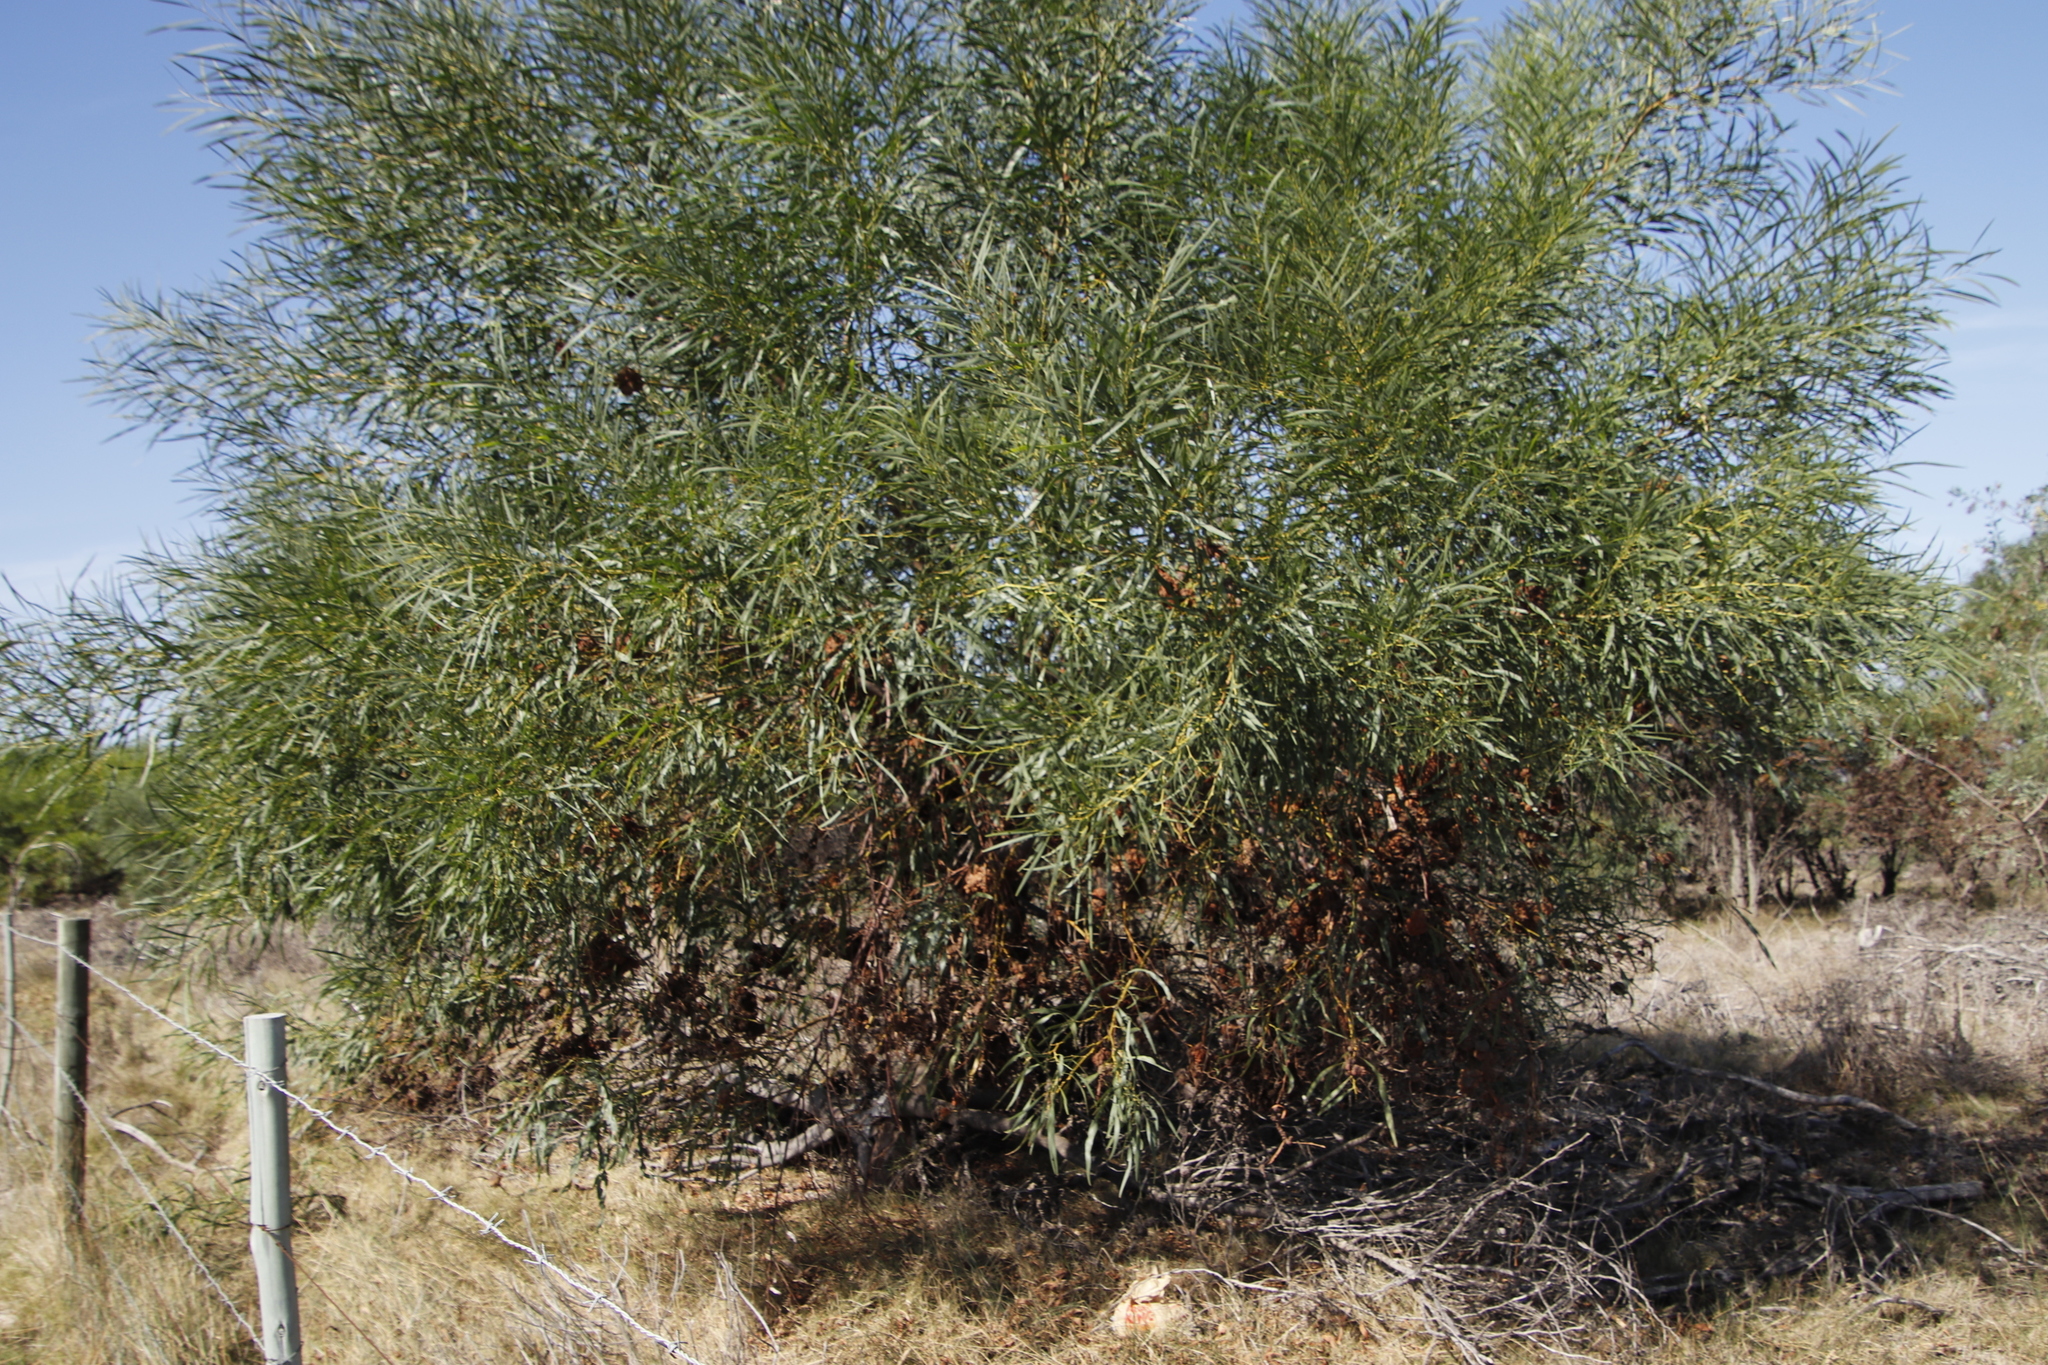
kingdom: Plantae
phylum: Tracheophyta
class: Magnoliopsida
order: Fabales
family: Fabaceae
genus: Acacia
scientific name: Acacia saligna
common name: Orange wattle
